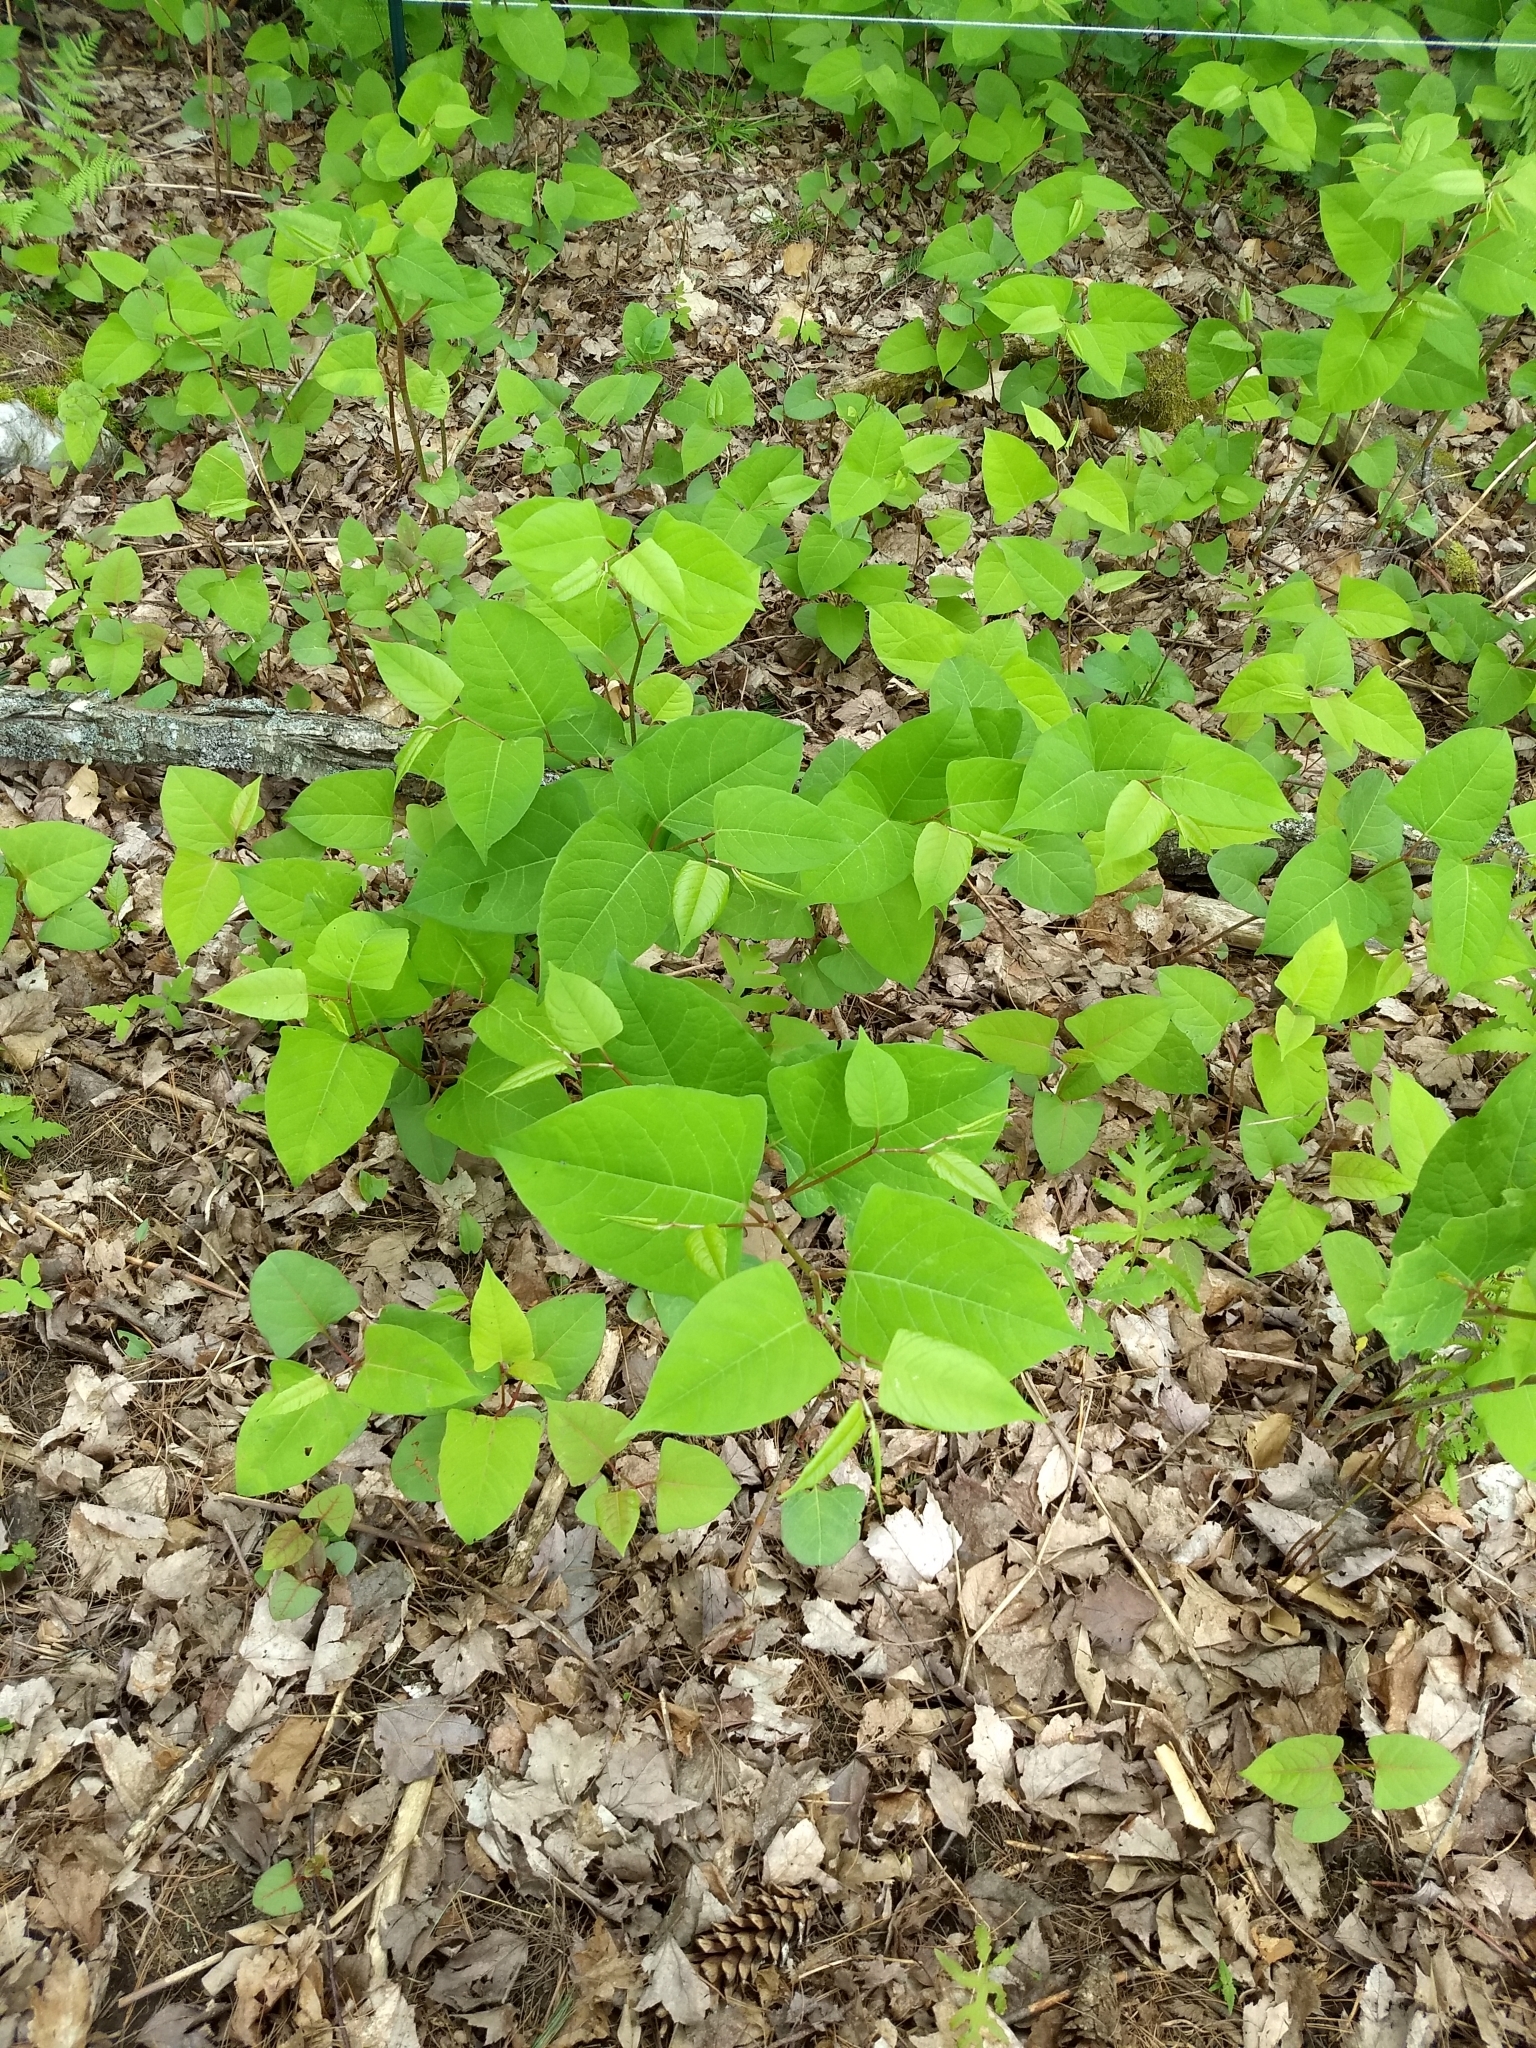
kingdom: Plantae
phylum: Tracheophyta
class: Magnoliopsida
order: Caryophyllales
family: Polygonaceae
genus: Reynoutria
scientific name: Reynoutria japonica
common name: Japanese knotweed
